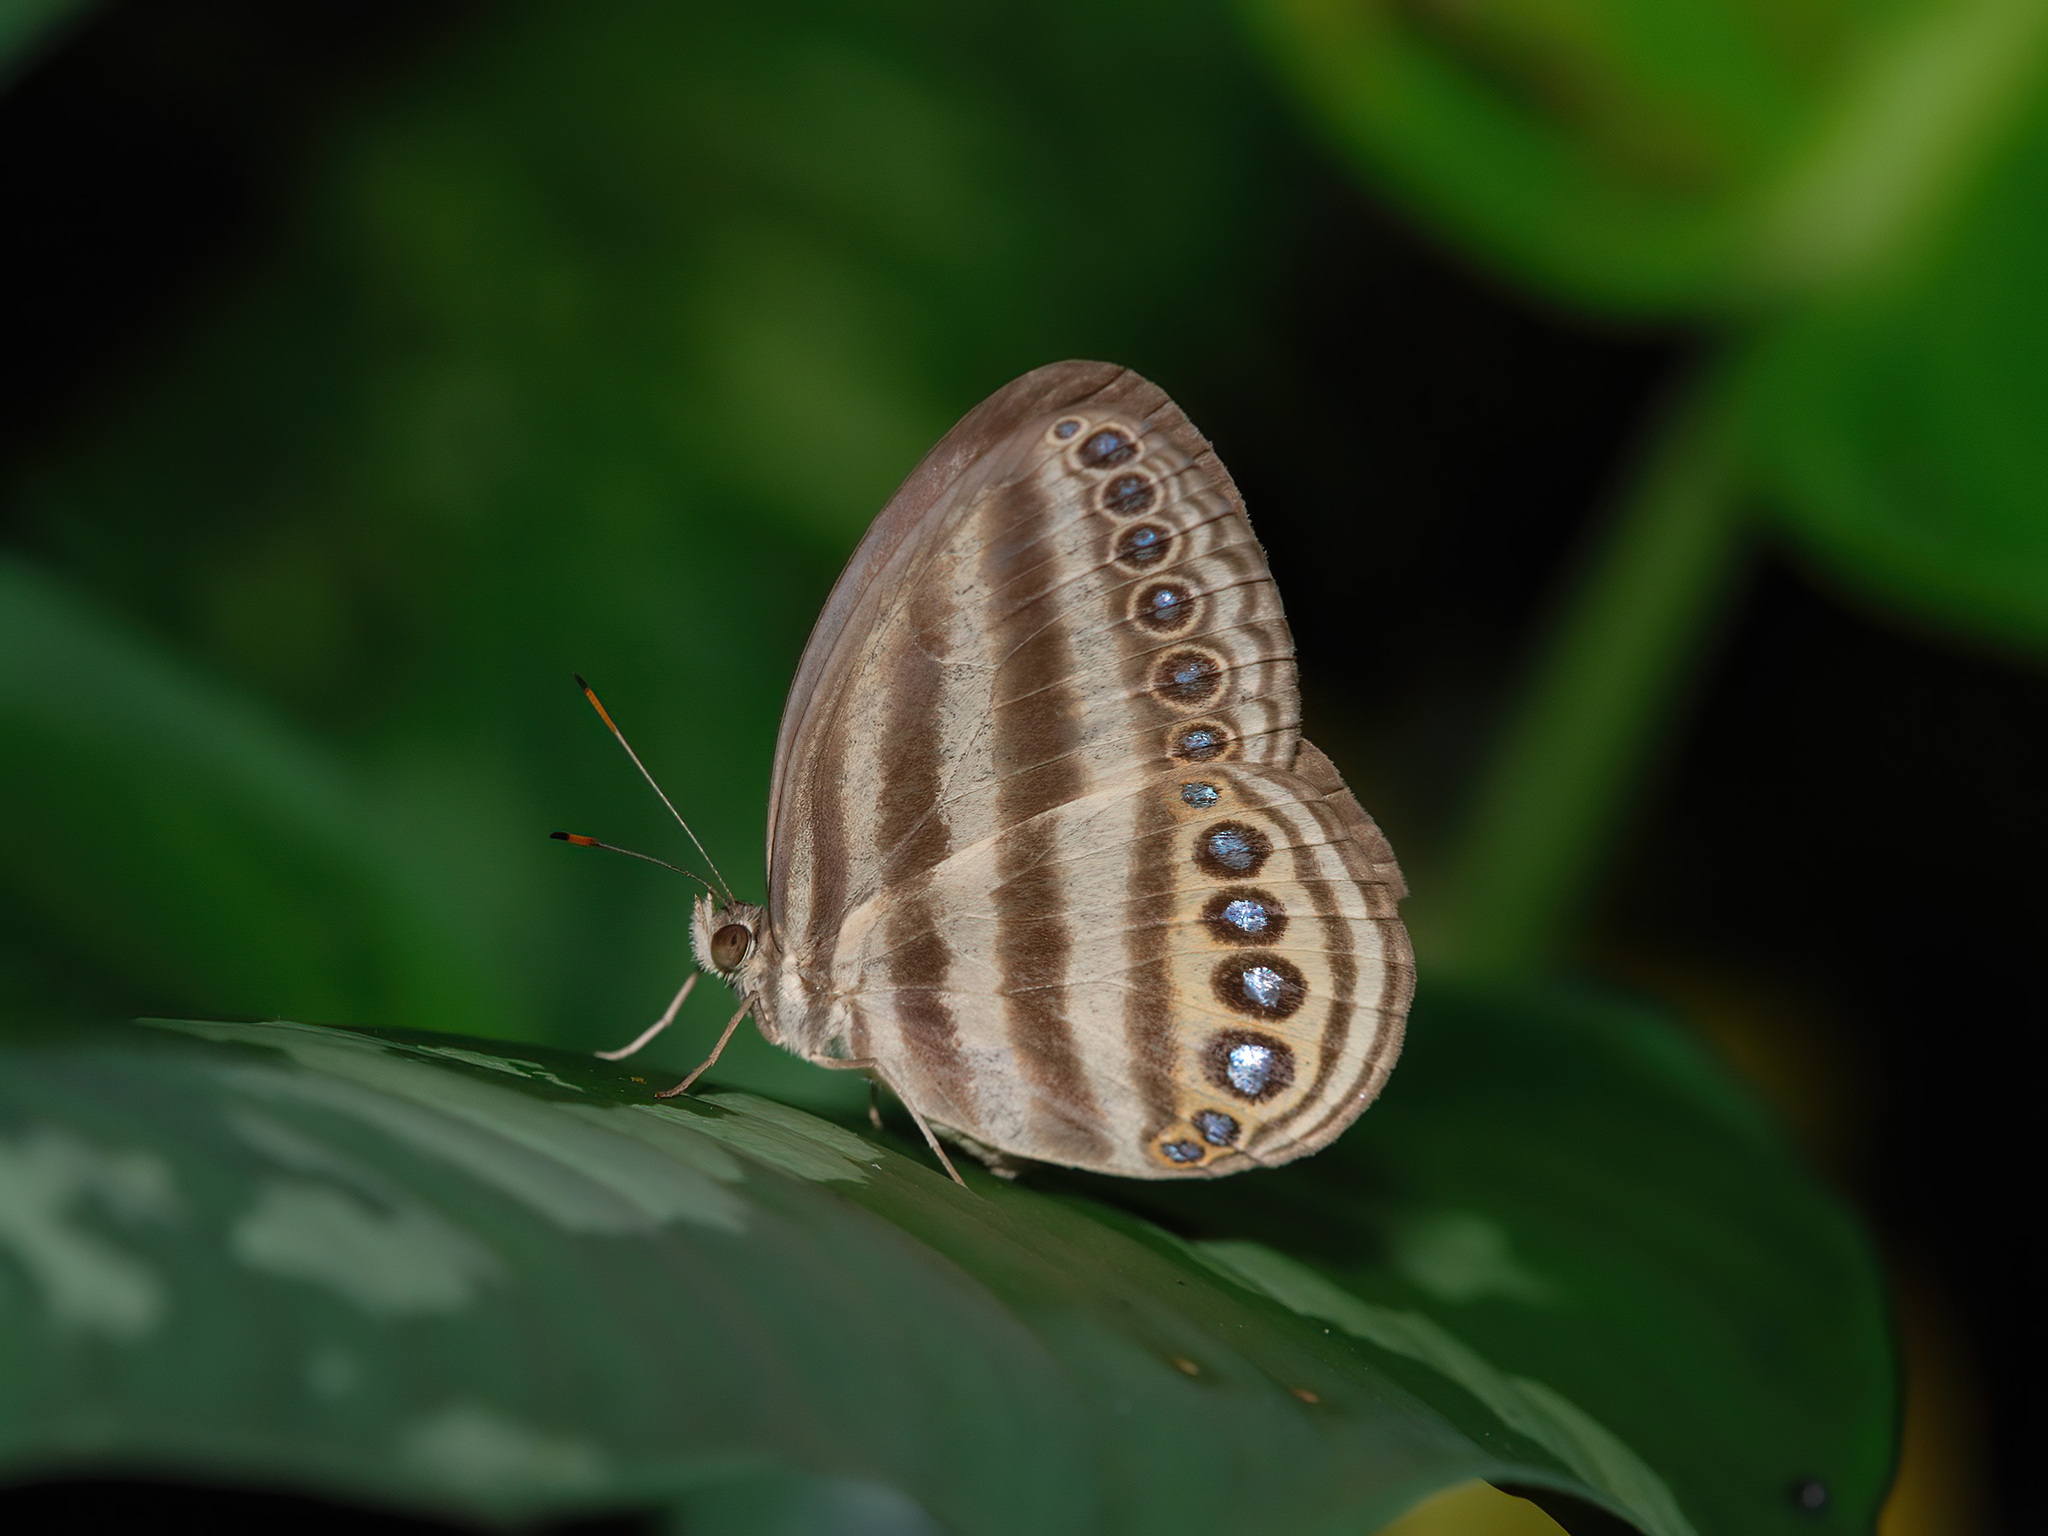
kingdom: Animalia
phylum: Arthropoda
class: Insecta
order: Lepidoptera
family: Nymphalidae
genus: Ragadia
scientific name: Ragadia makuta
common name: Striped ringlet
